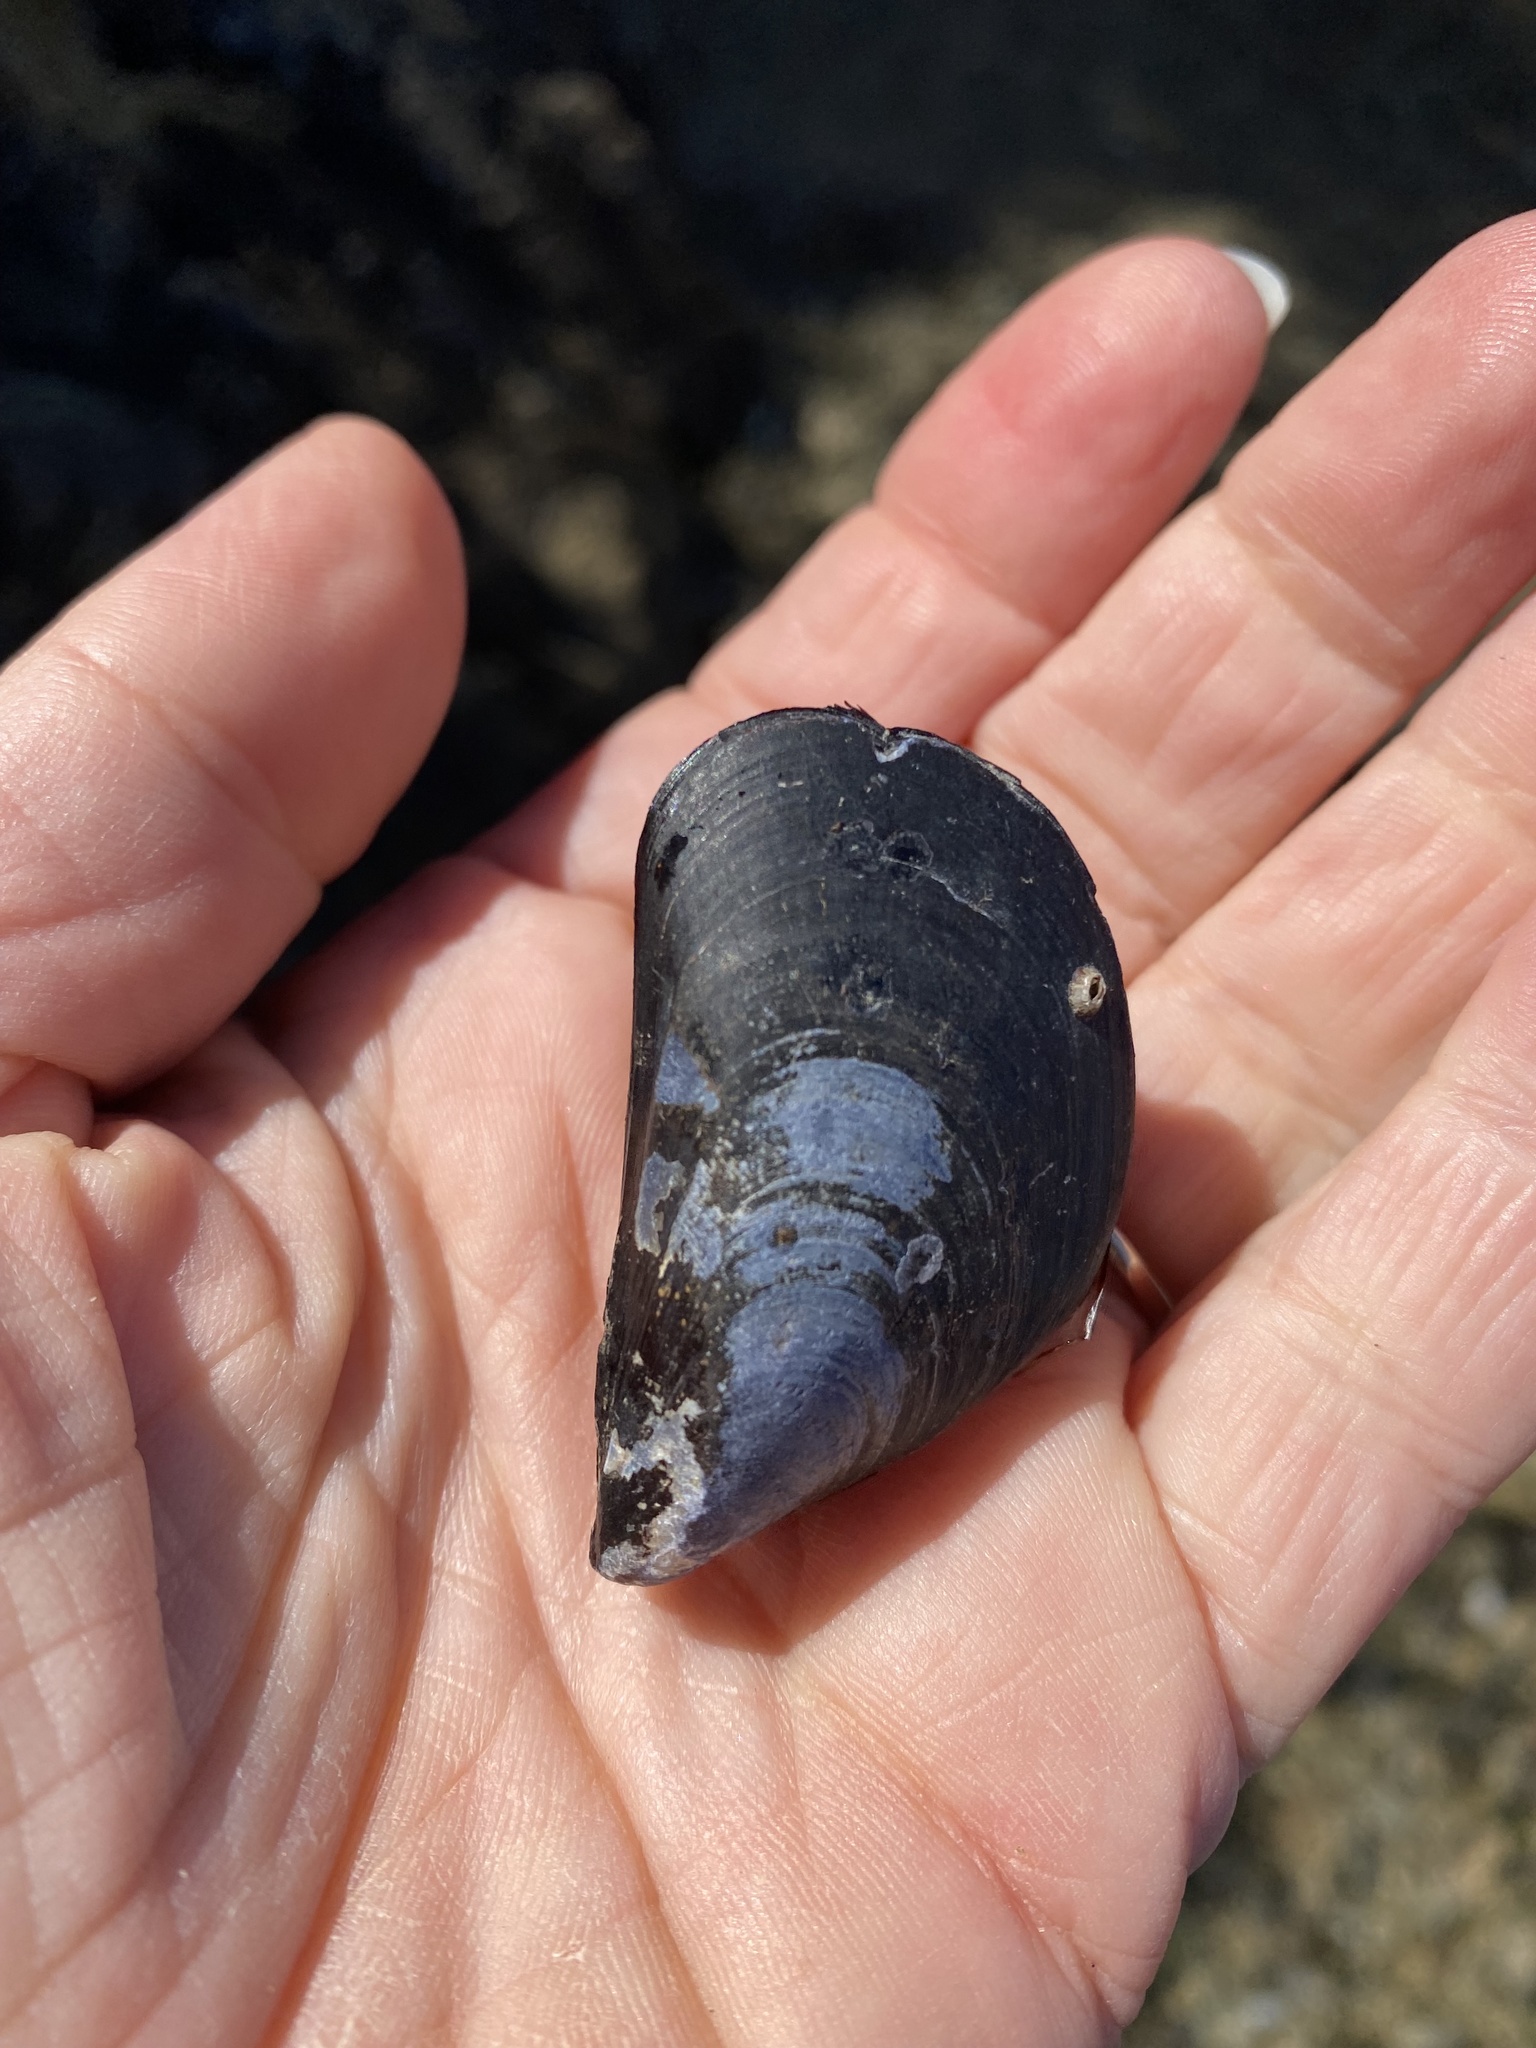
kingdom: Animalia
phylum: Mollusca
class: Bivalvia
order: Mytilida
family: Mytilidae
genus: Mytilus
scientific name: Mytilus
